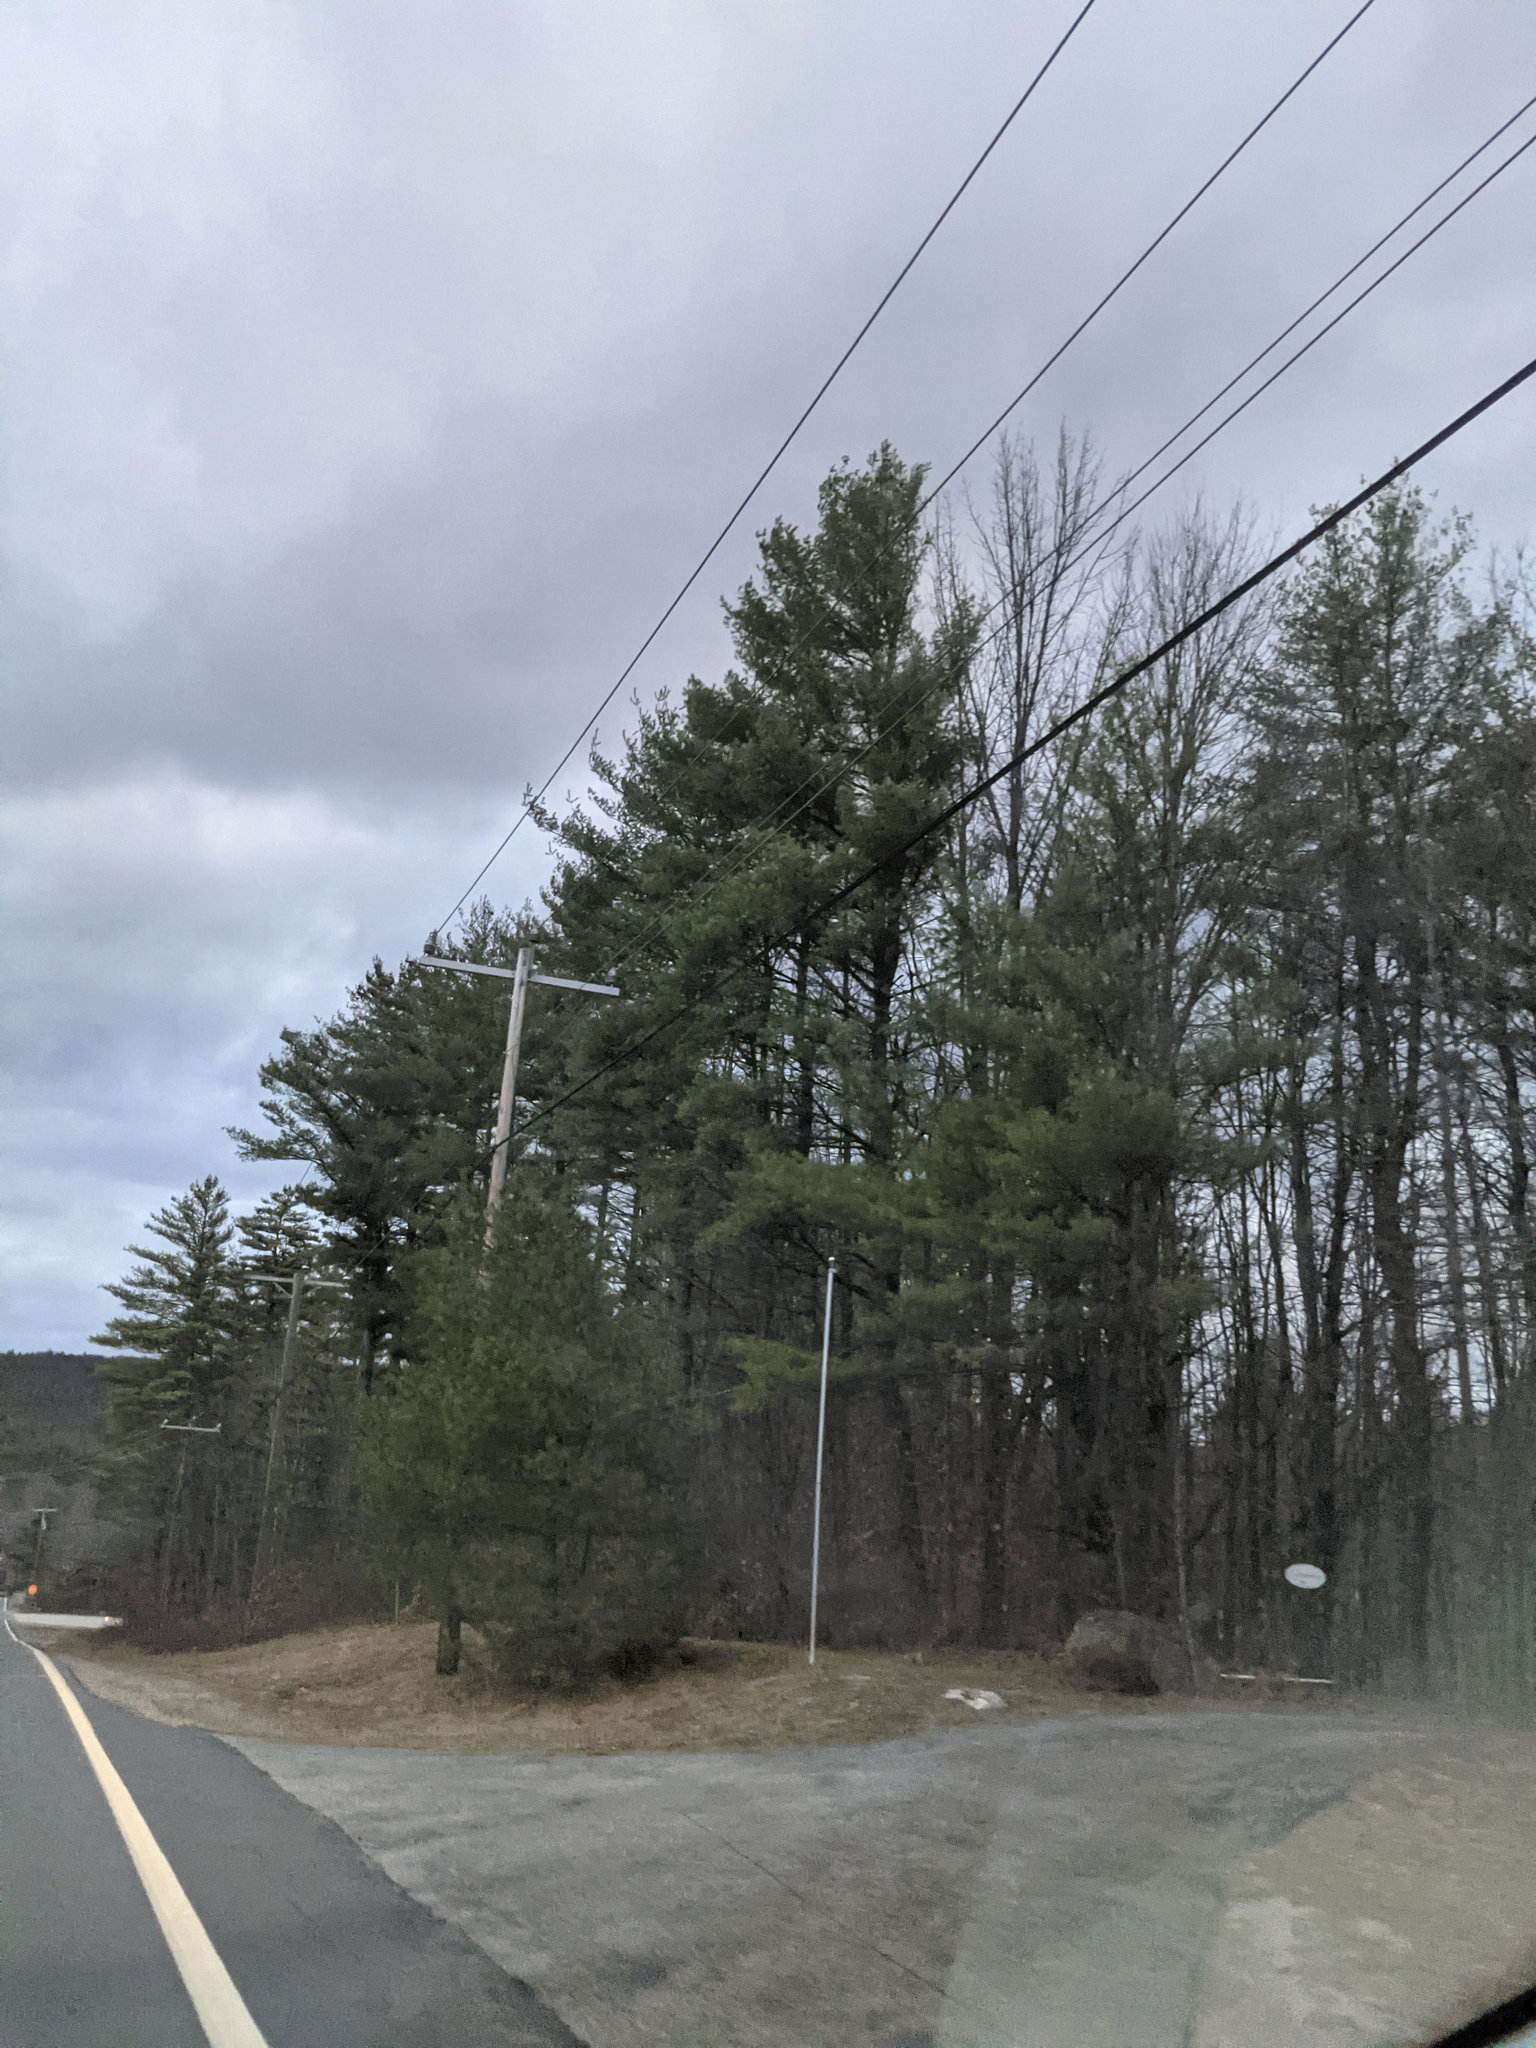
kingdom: Plantae
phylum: Tracheophyta
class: Pinopsida
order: Pinales
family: Pinaceae
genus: Pinus
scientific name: Pinus strobus
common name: Weymouth pine
